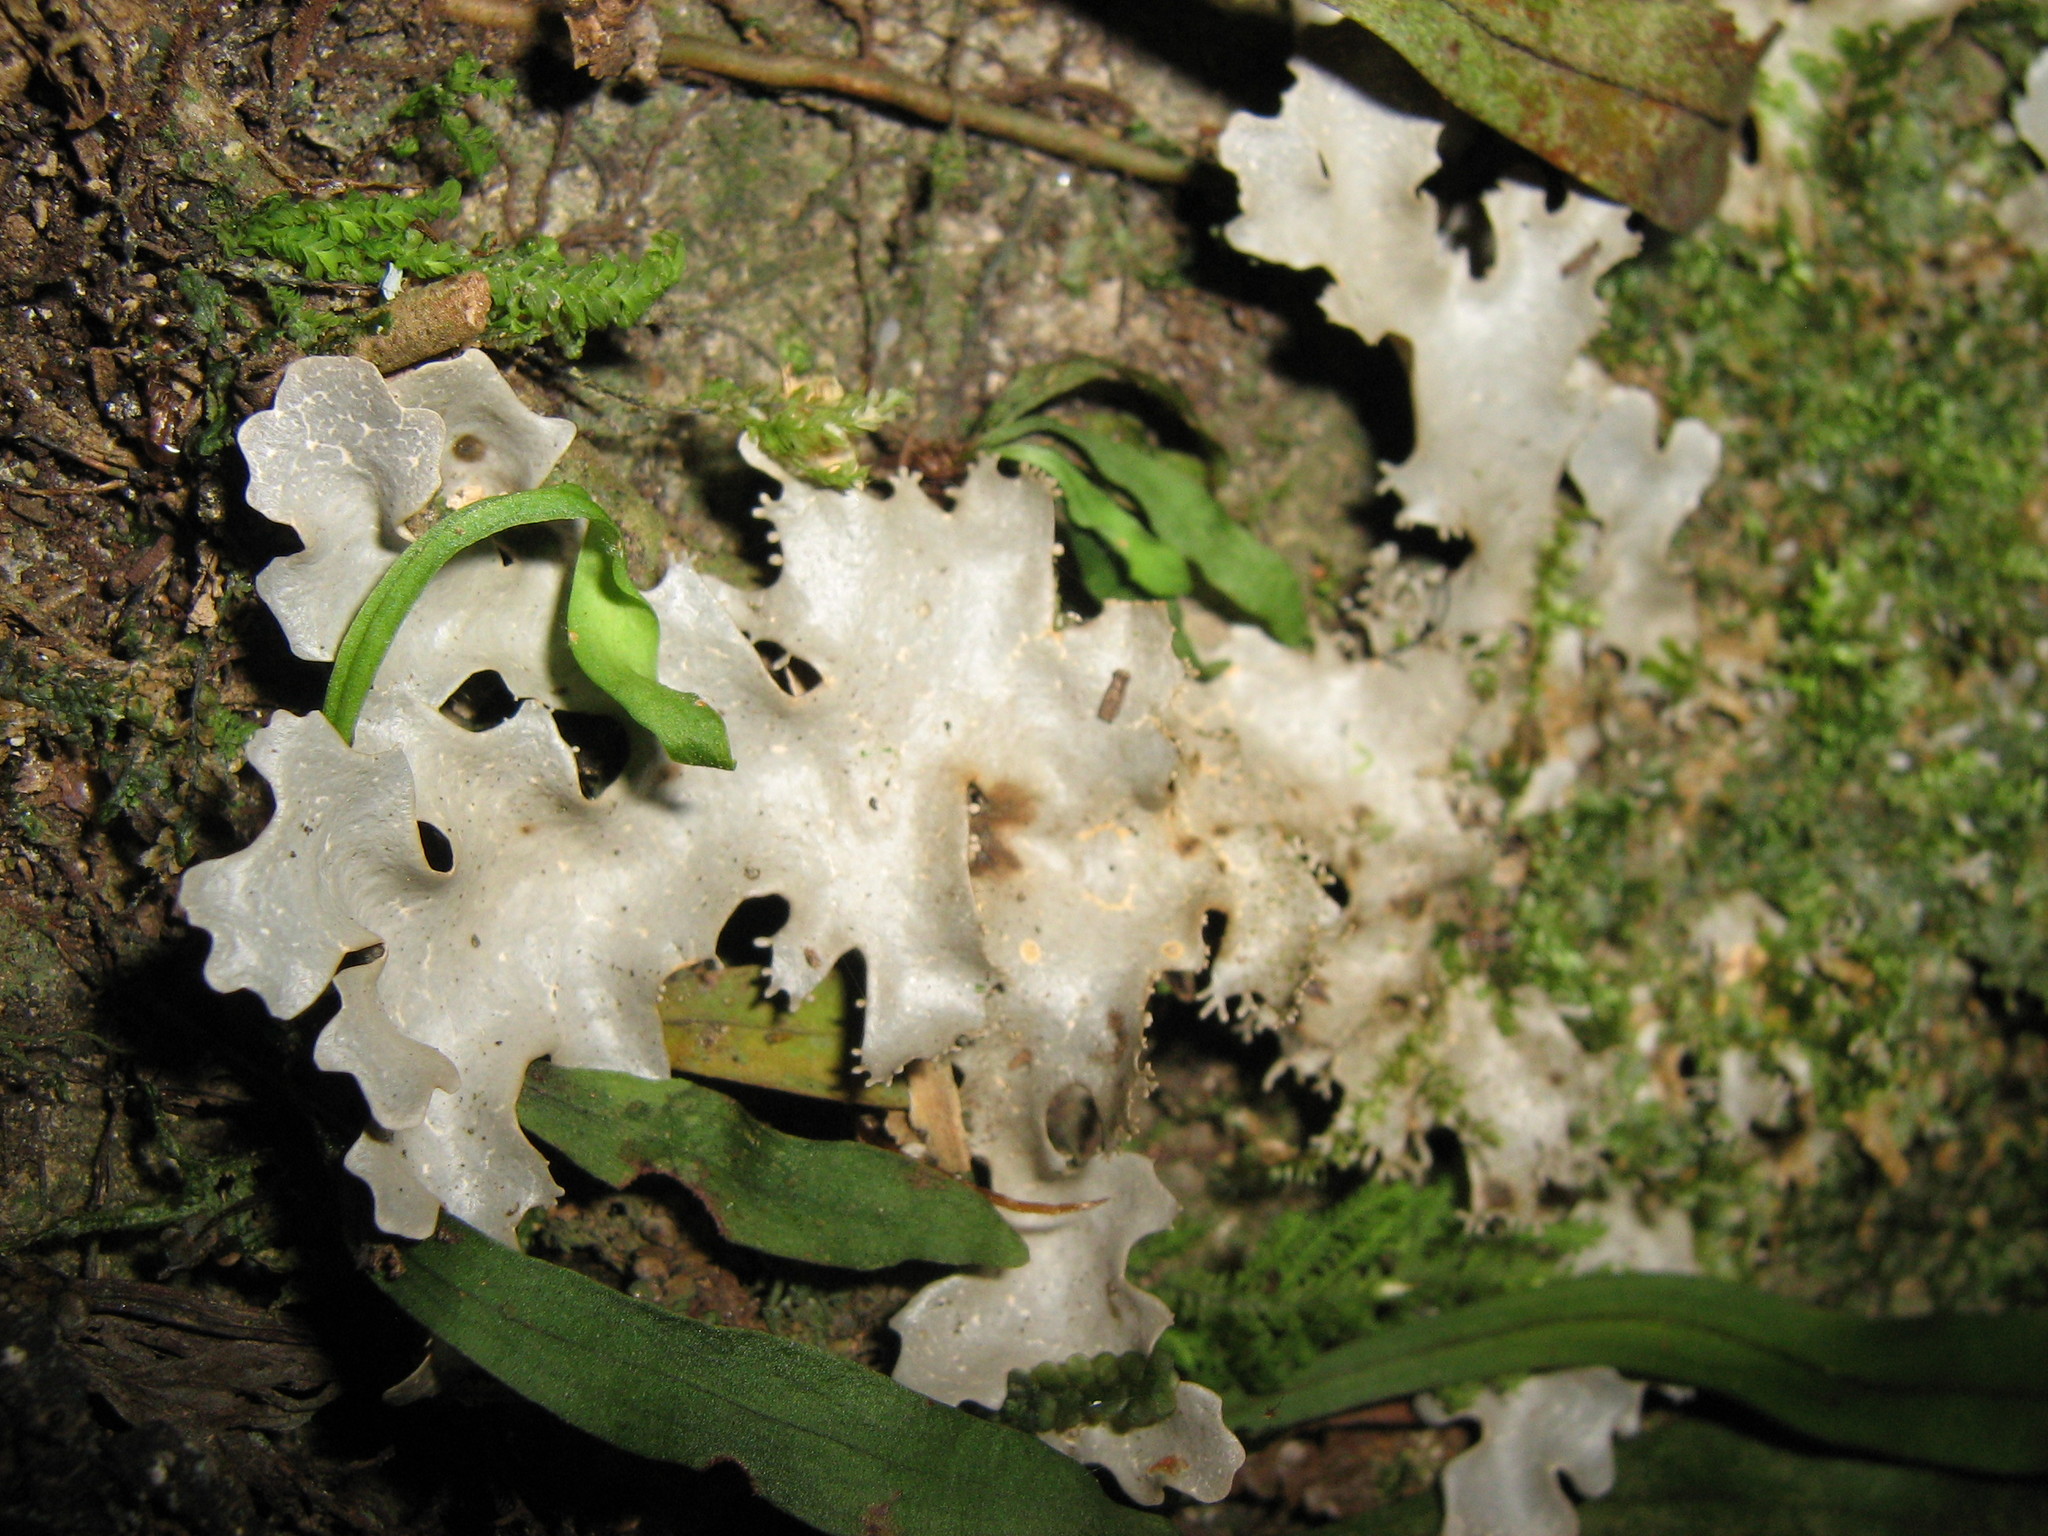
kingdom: Fungi
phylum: Ascomycota
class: Lecanoromycetes
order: Peltigerales
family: Lobariaceae
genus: Pseudocyphellaria
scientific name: Pseudocyphellaria dissimilis
